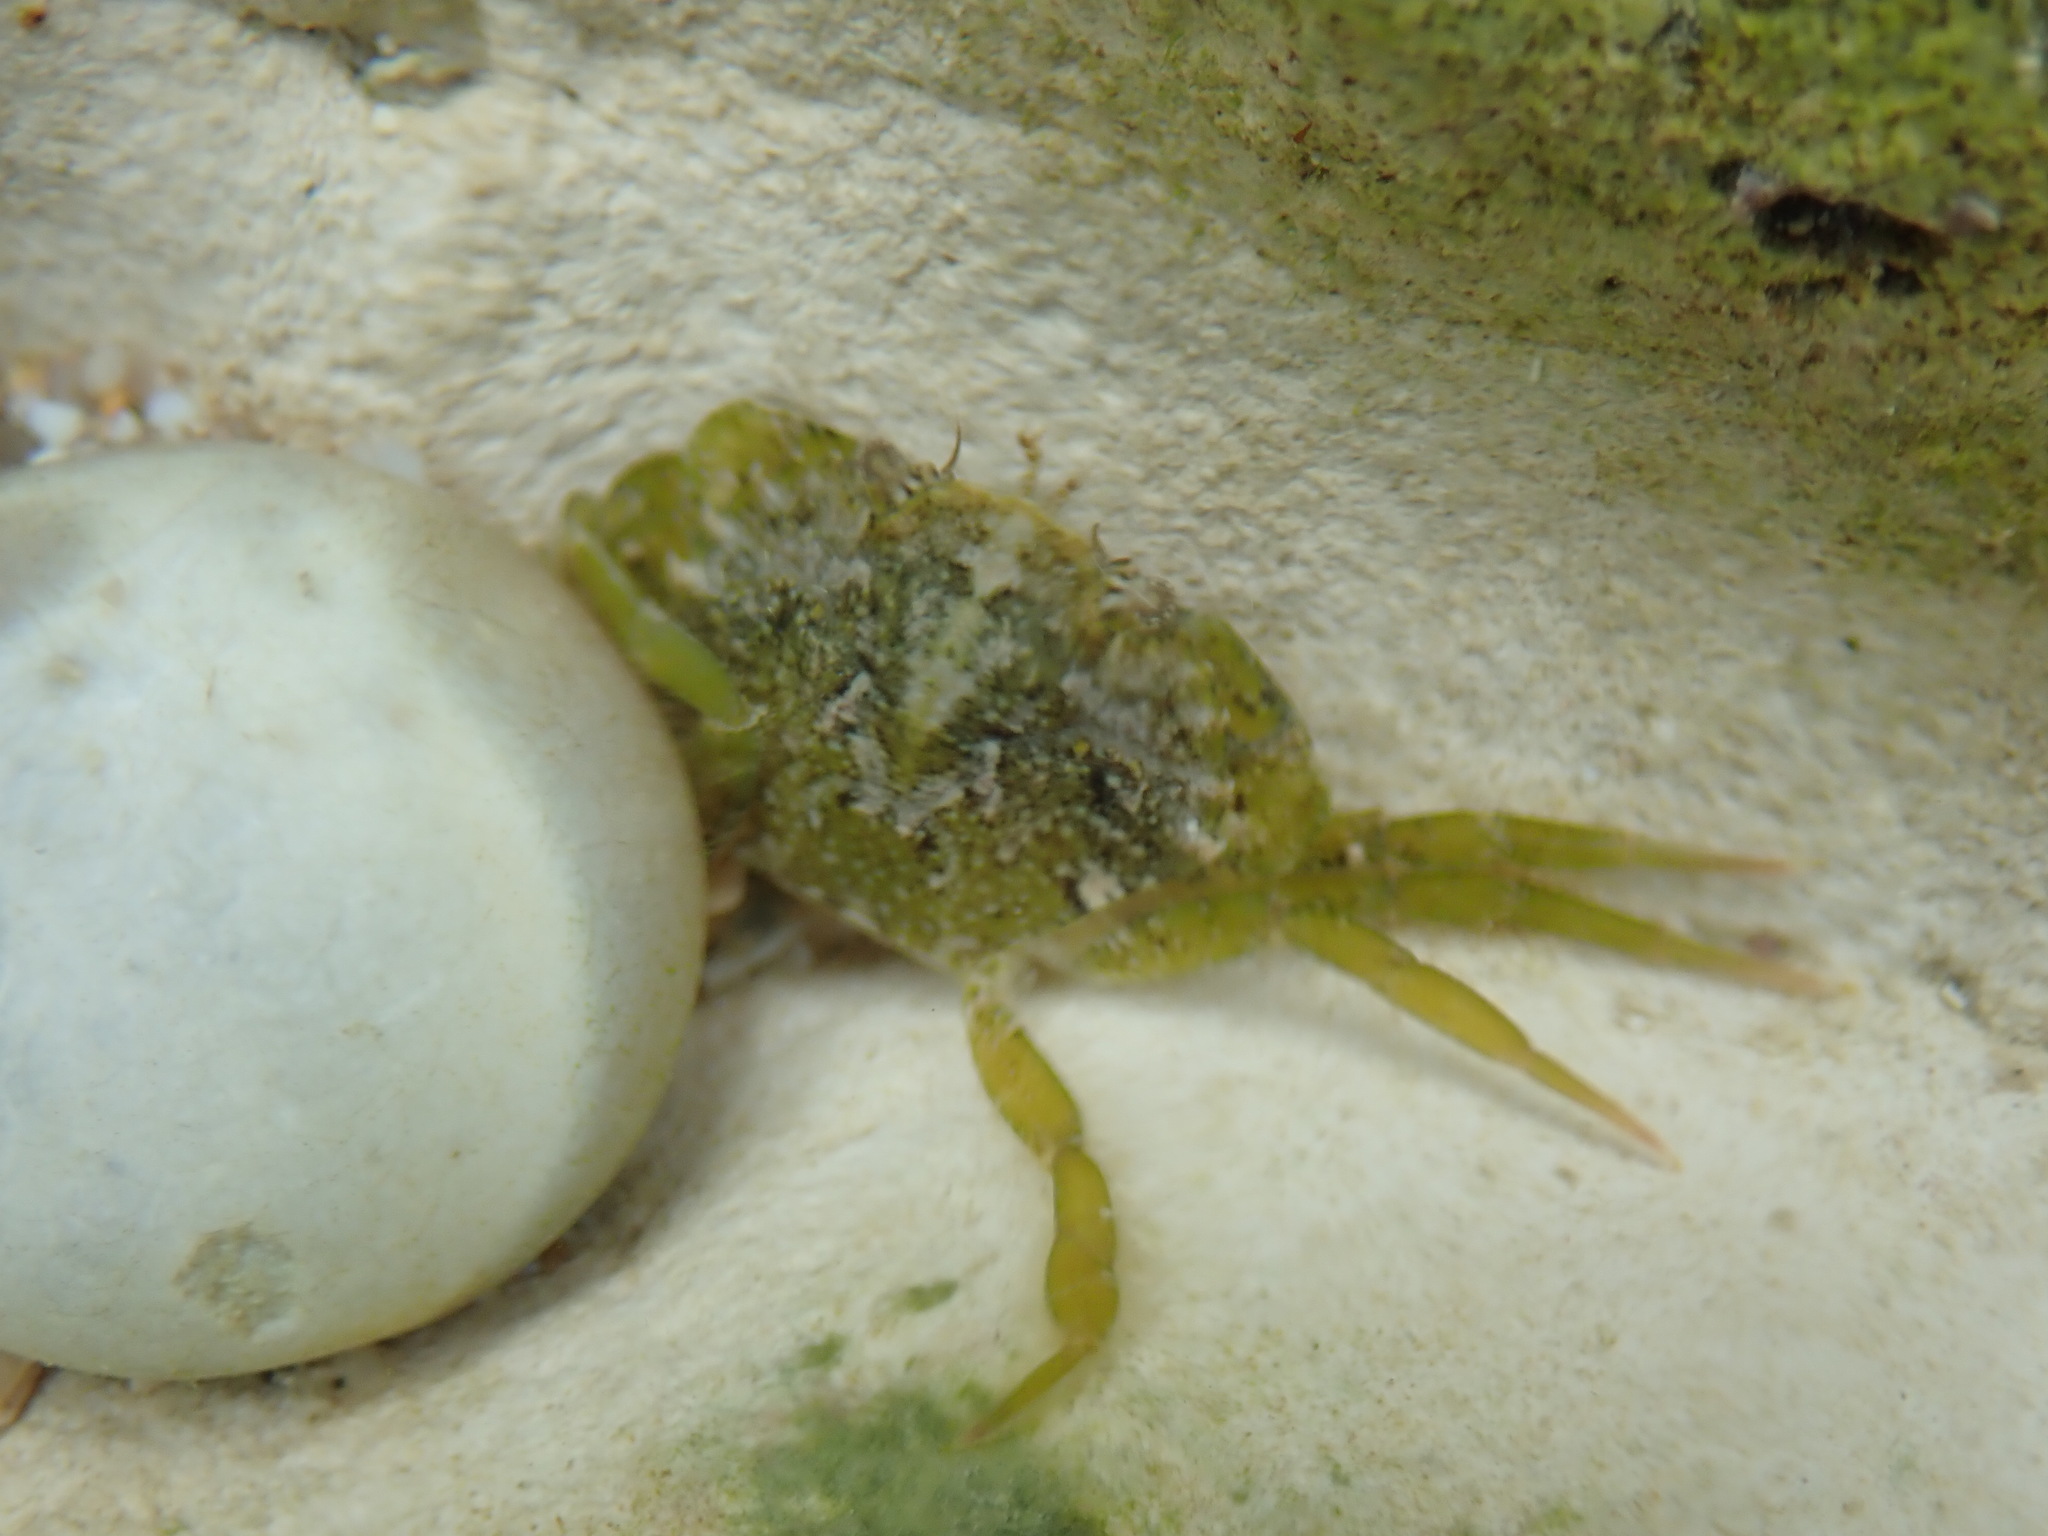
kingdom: Animalia
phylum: Arthropoda
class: Malacostraca
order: Decapoda
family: Carcinidae
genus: Carcinus
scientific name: Carcinus maenas
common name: European green crab
